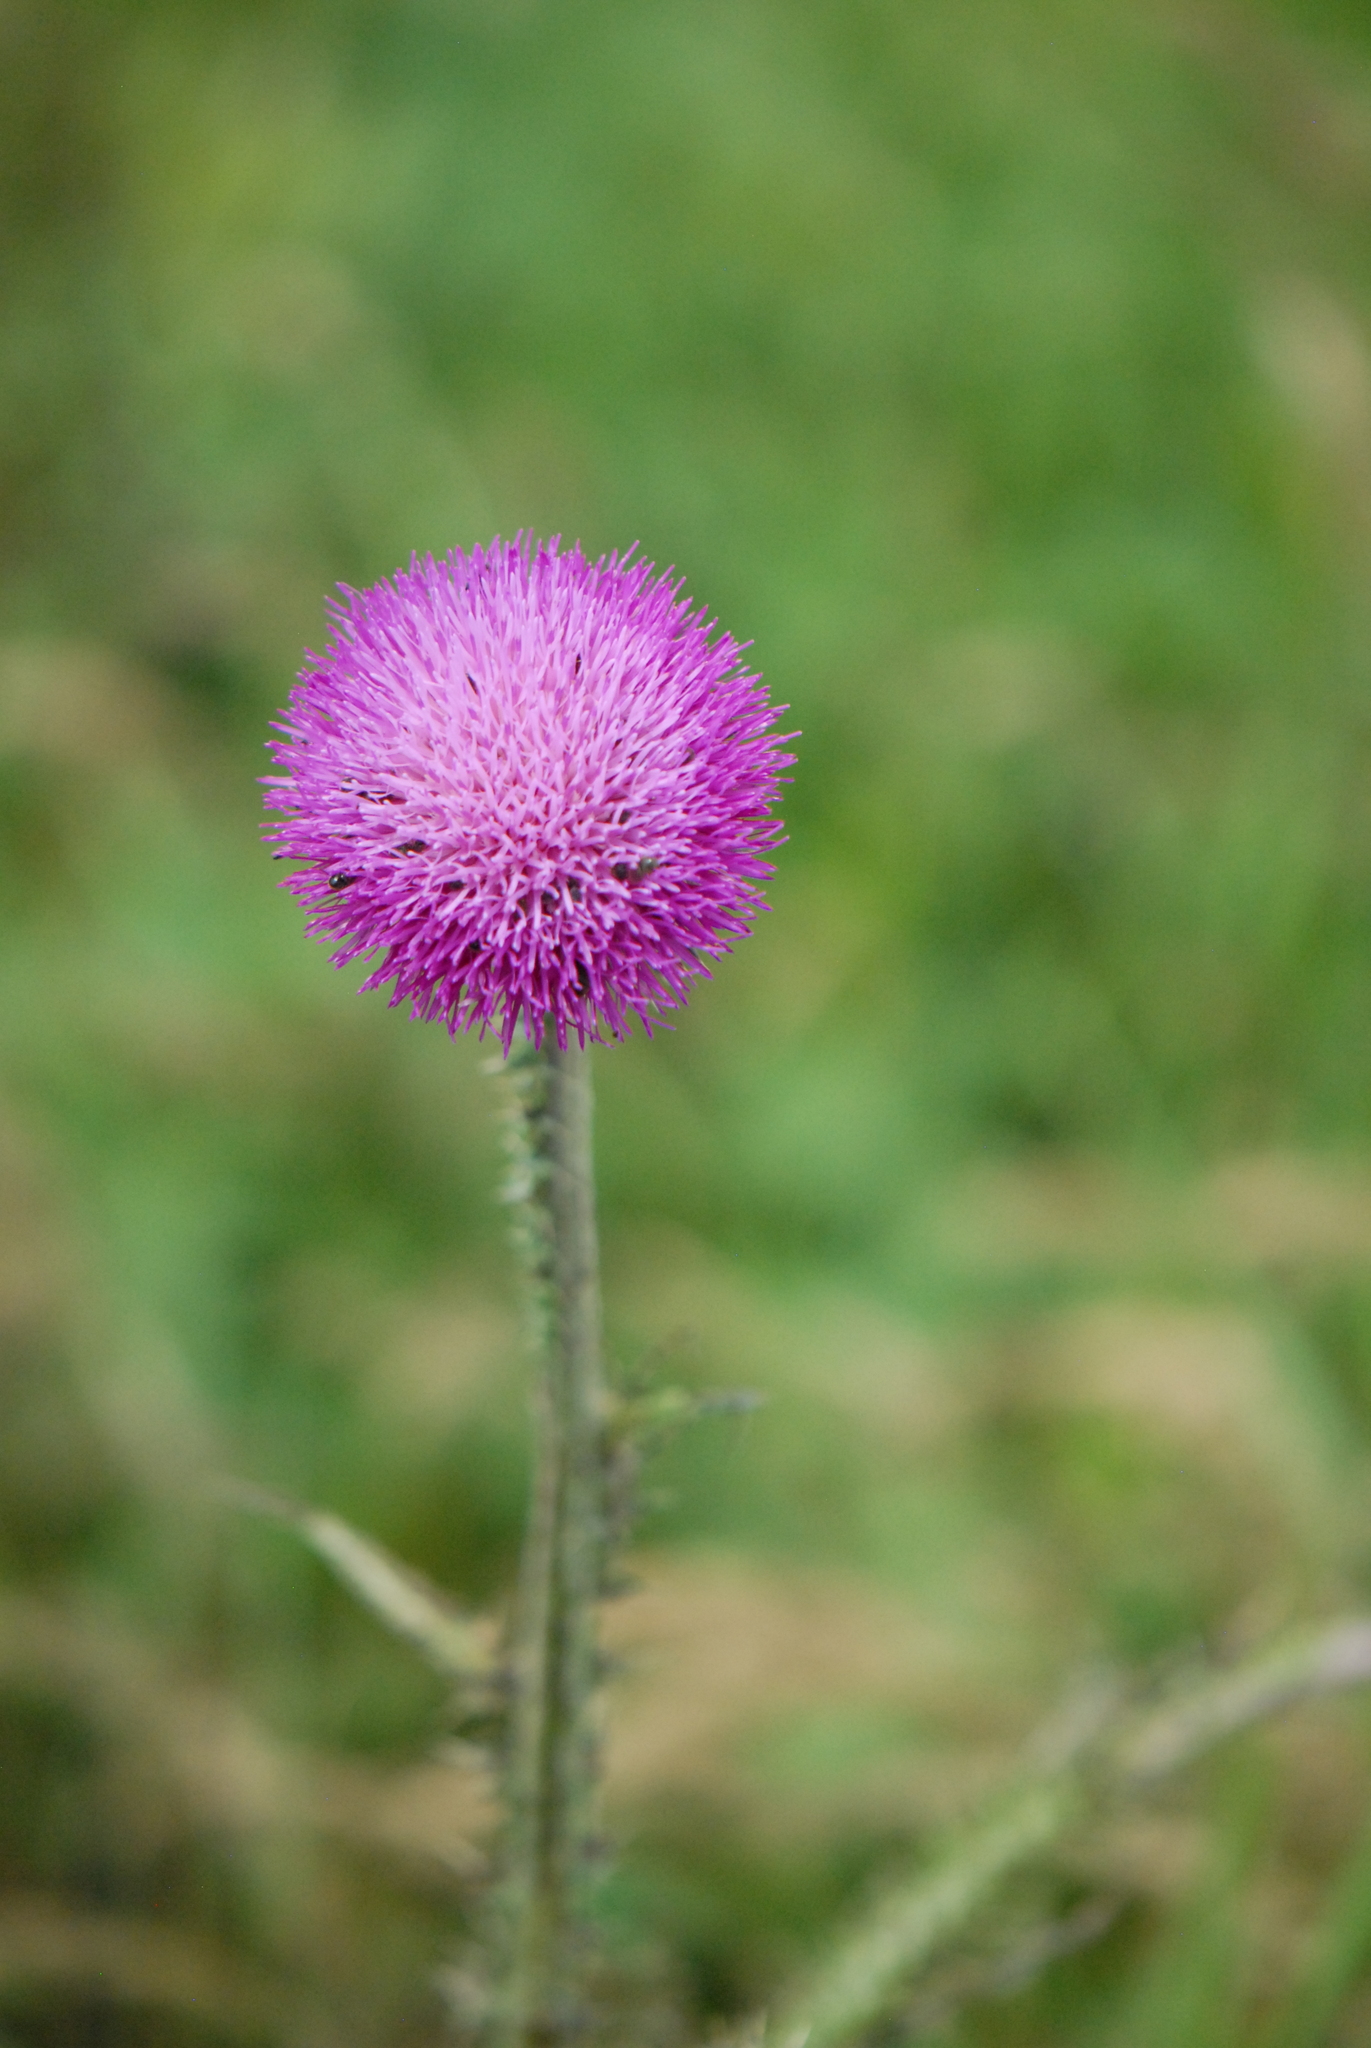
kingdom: Plantae
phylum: Tracheophyta
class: Magnoliopsida
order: Asterales
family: Asteraceae
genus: Carduus
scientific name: Carduus uncinatus
